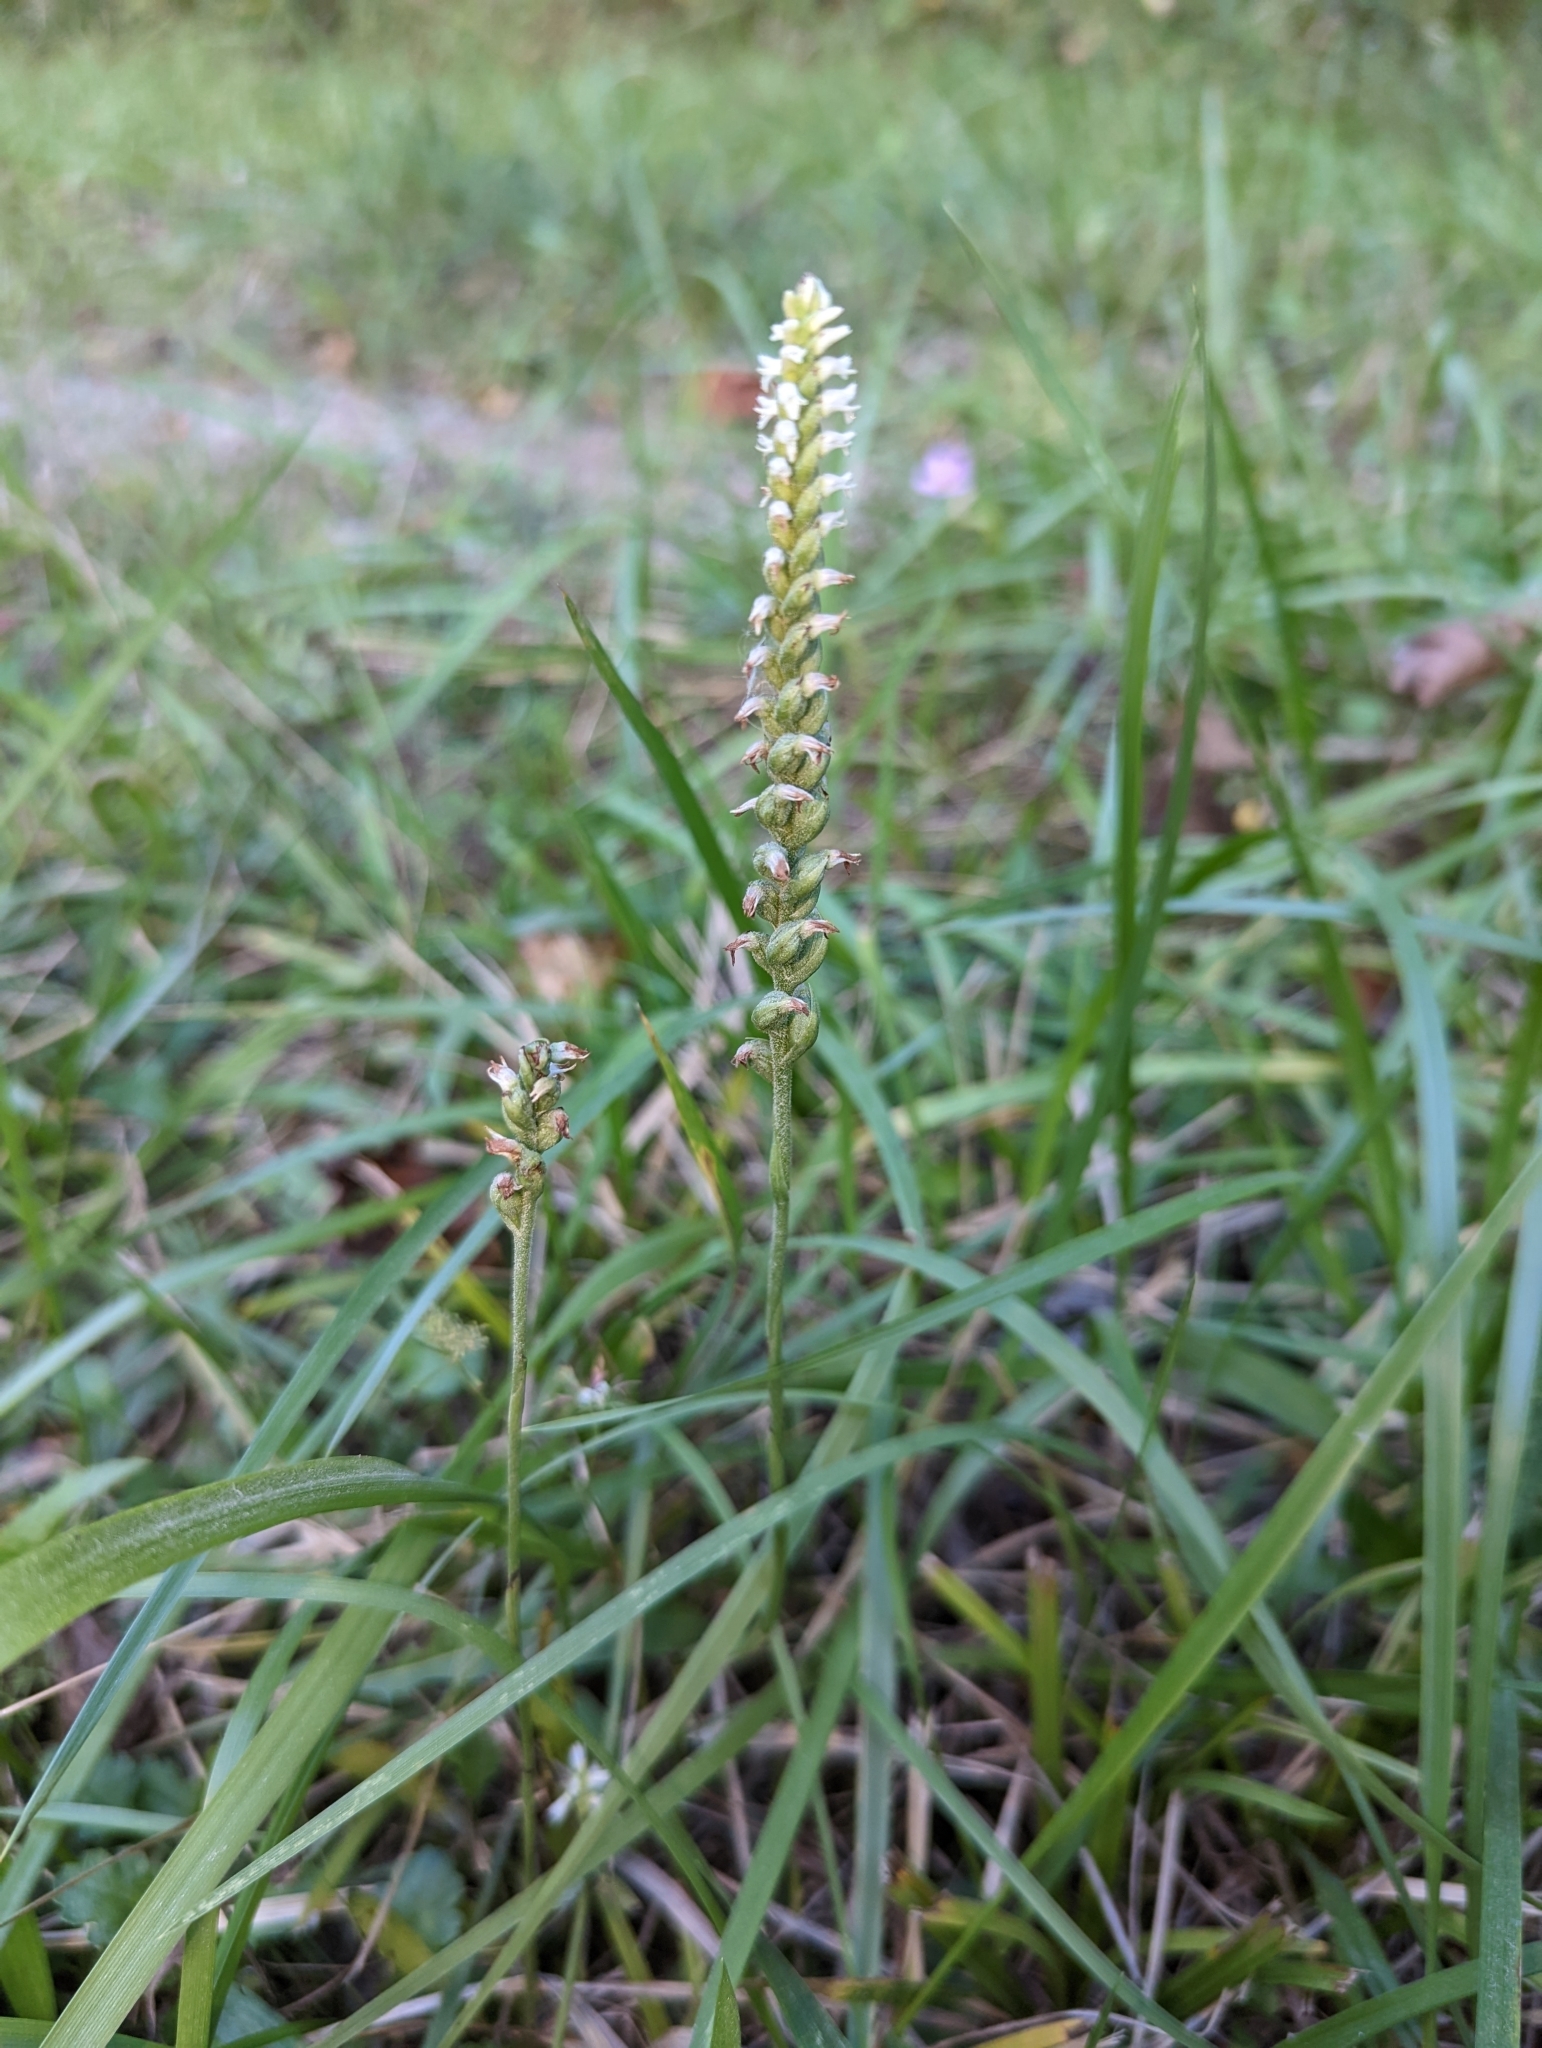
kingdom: Plantae
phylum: Tracheophyta
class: Liliopsida
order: Asparagales
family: Orchidaceae
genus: Spiranthes
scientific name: Spiranthes ovalis
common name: October ladies'-tresses
